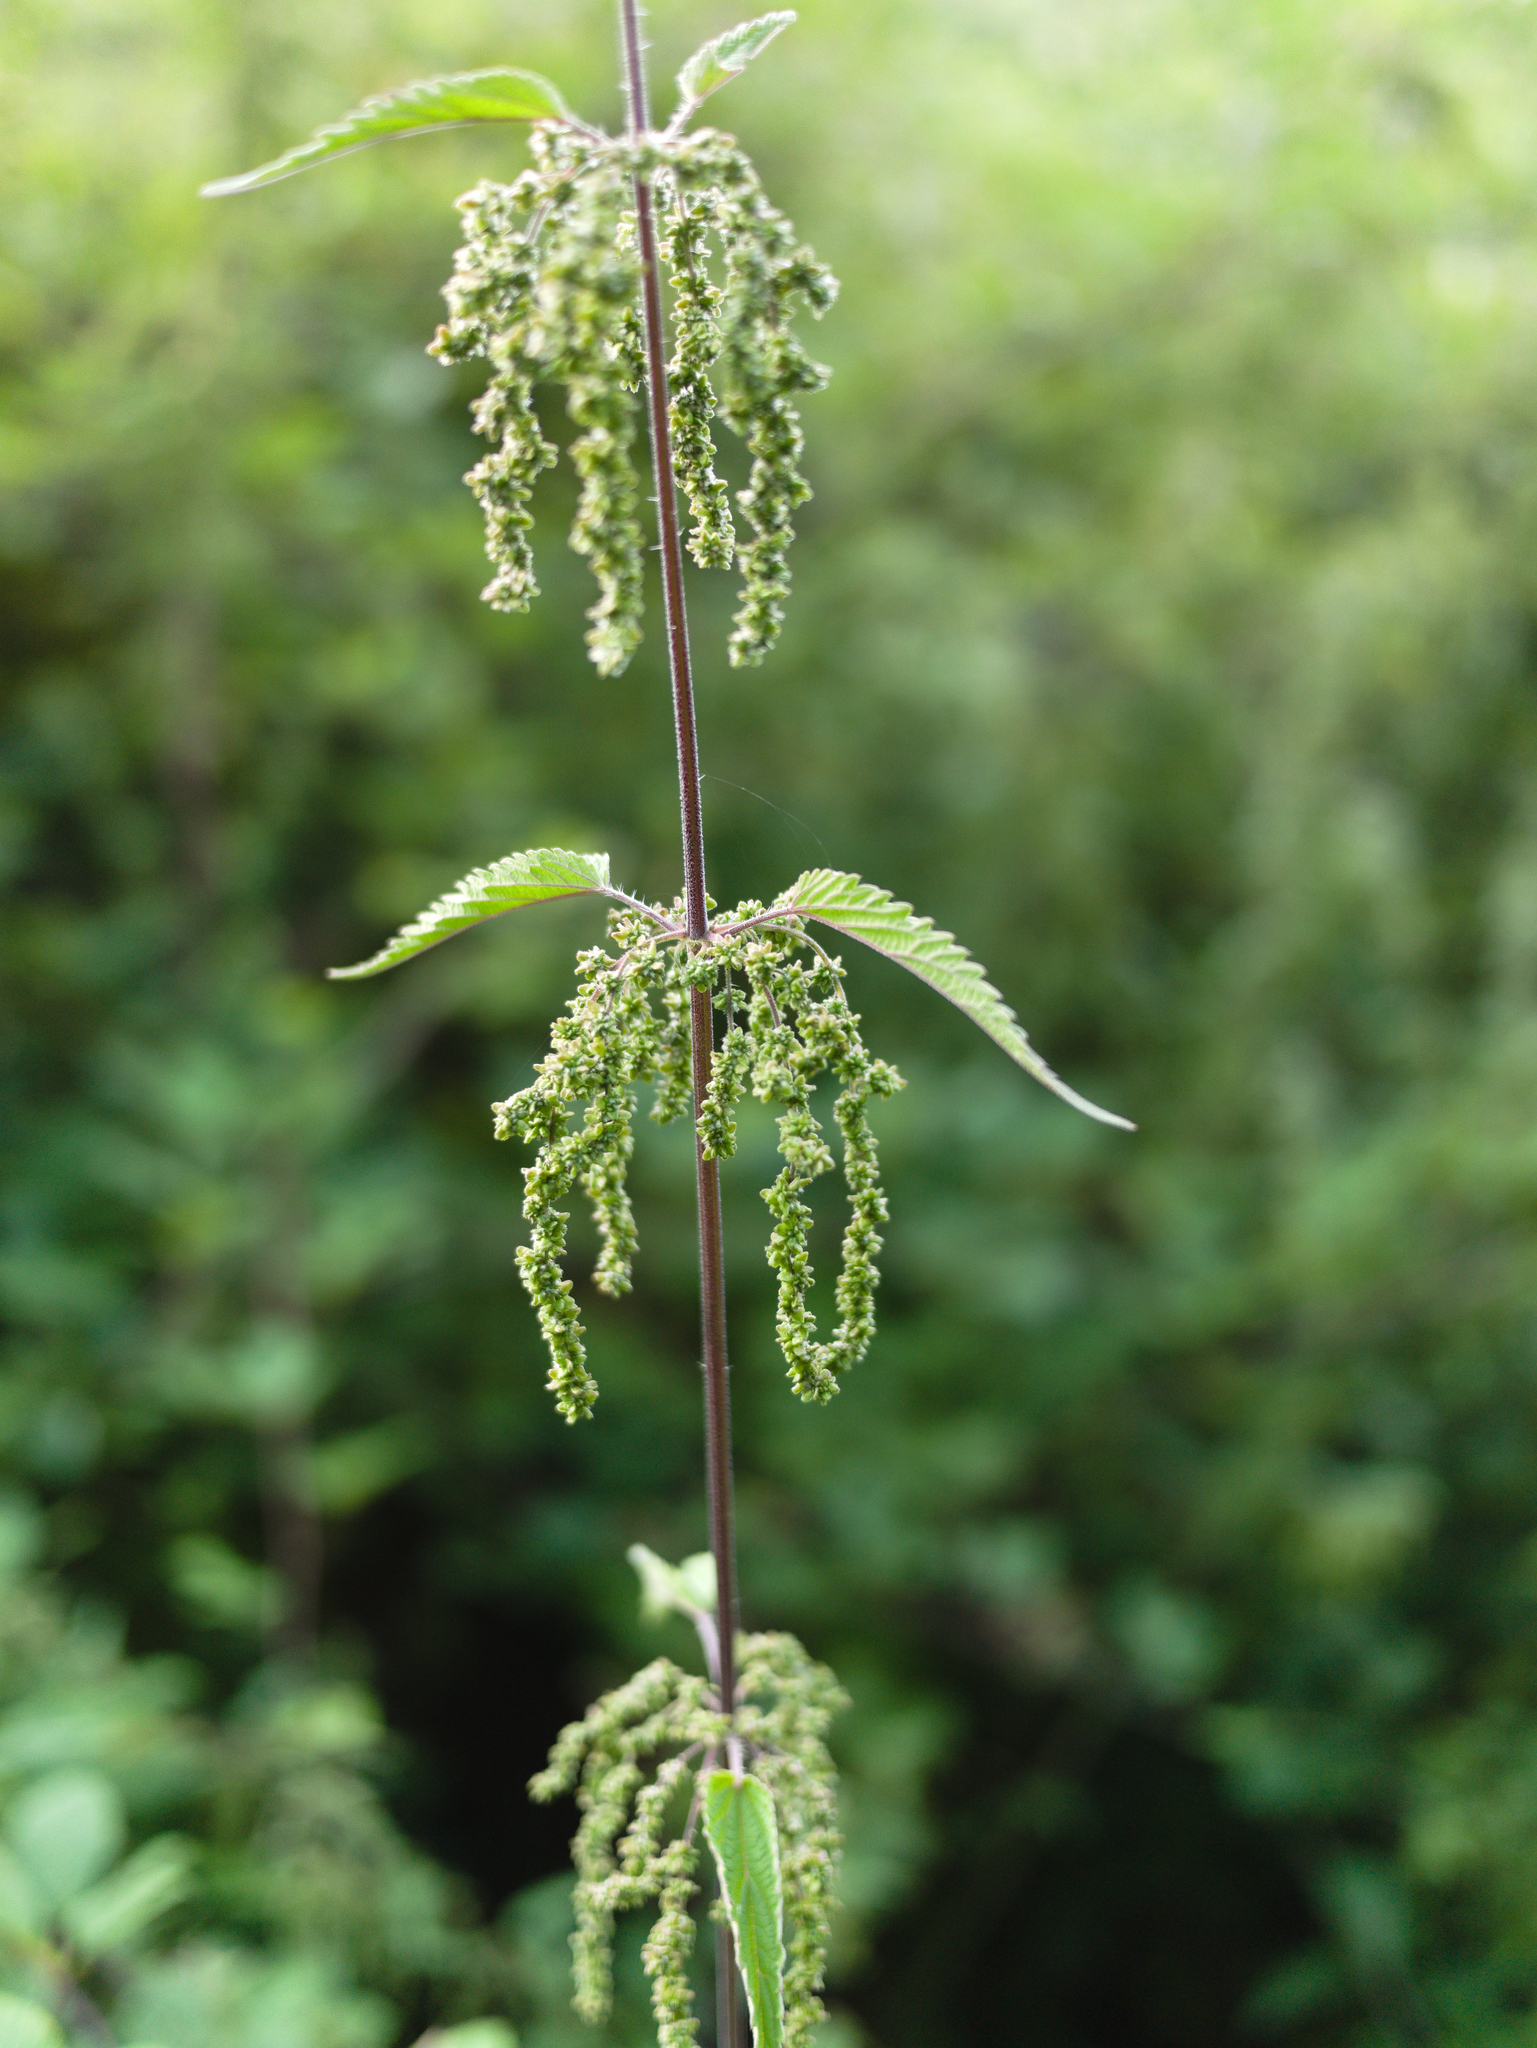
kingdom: Plantae
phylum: Tracheophyta
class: Magnoliopsida
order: Rosales
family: Urticaceae
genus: Urtica
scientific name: Urtica dioica
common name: Common nettle
